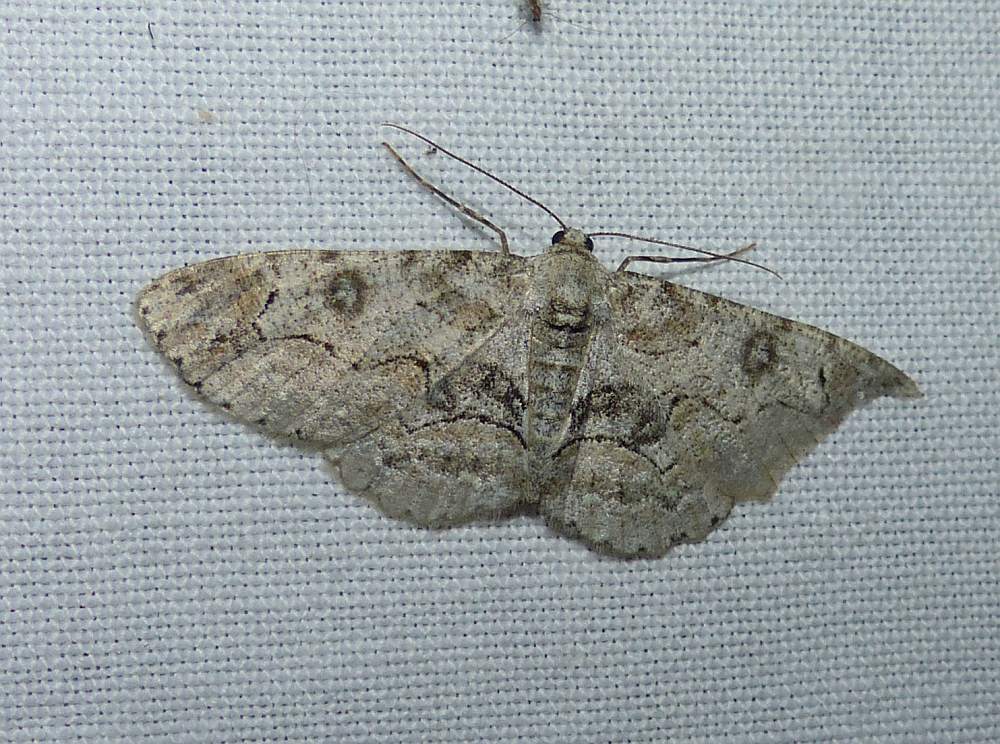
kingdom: Animalia
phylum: Arthropoda
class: Insecta
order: Lepidoptera
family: Geometridae
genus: Iridopsis
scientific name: Iridopsis larvaria
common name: Bent-line gray
